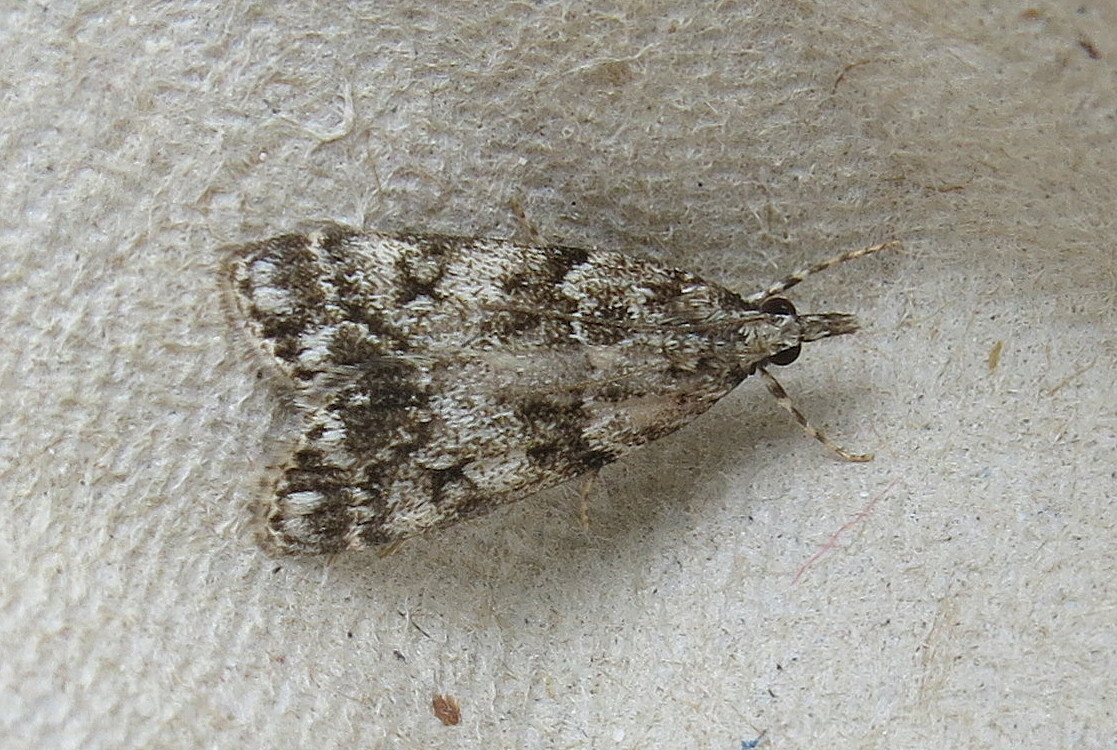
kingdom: Animalia
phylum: Arthropoda
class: Insecta
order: Lepidoptera
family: Crambidae
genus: Eudonia
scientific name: Eudonia lacustrata
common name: Little grey
